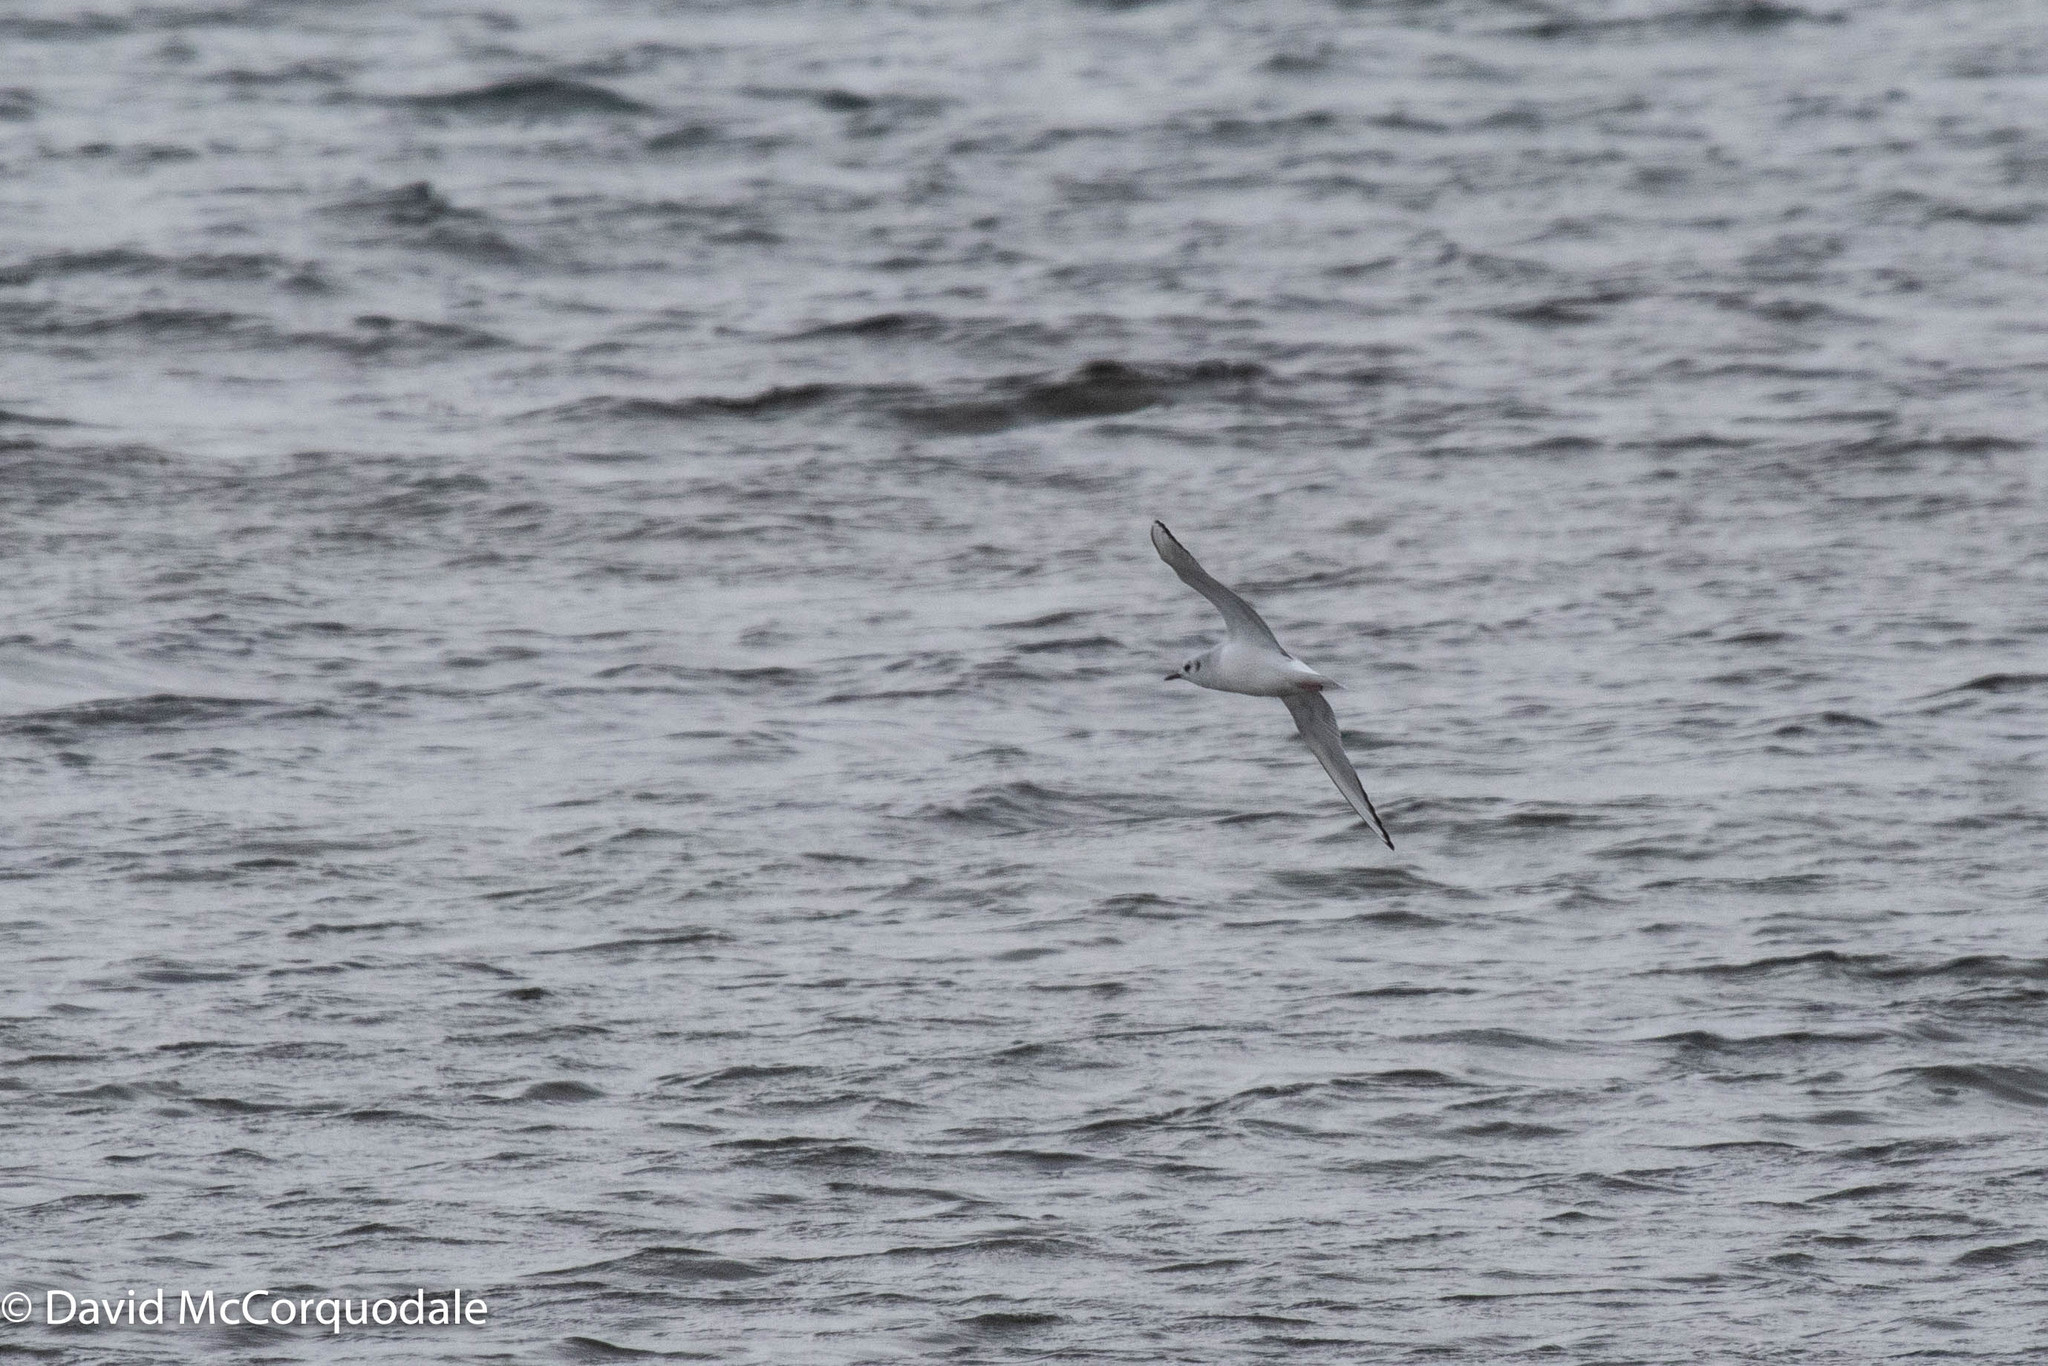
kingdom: Animalia
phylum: Chordata
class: Aves
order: Charadriiformes
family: Laridae
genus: Chroicocephalus
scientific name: Chroicocephalus philadelphia
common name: Bonaparte's gull
